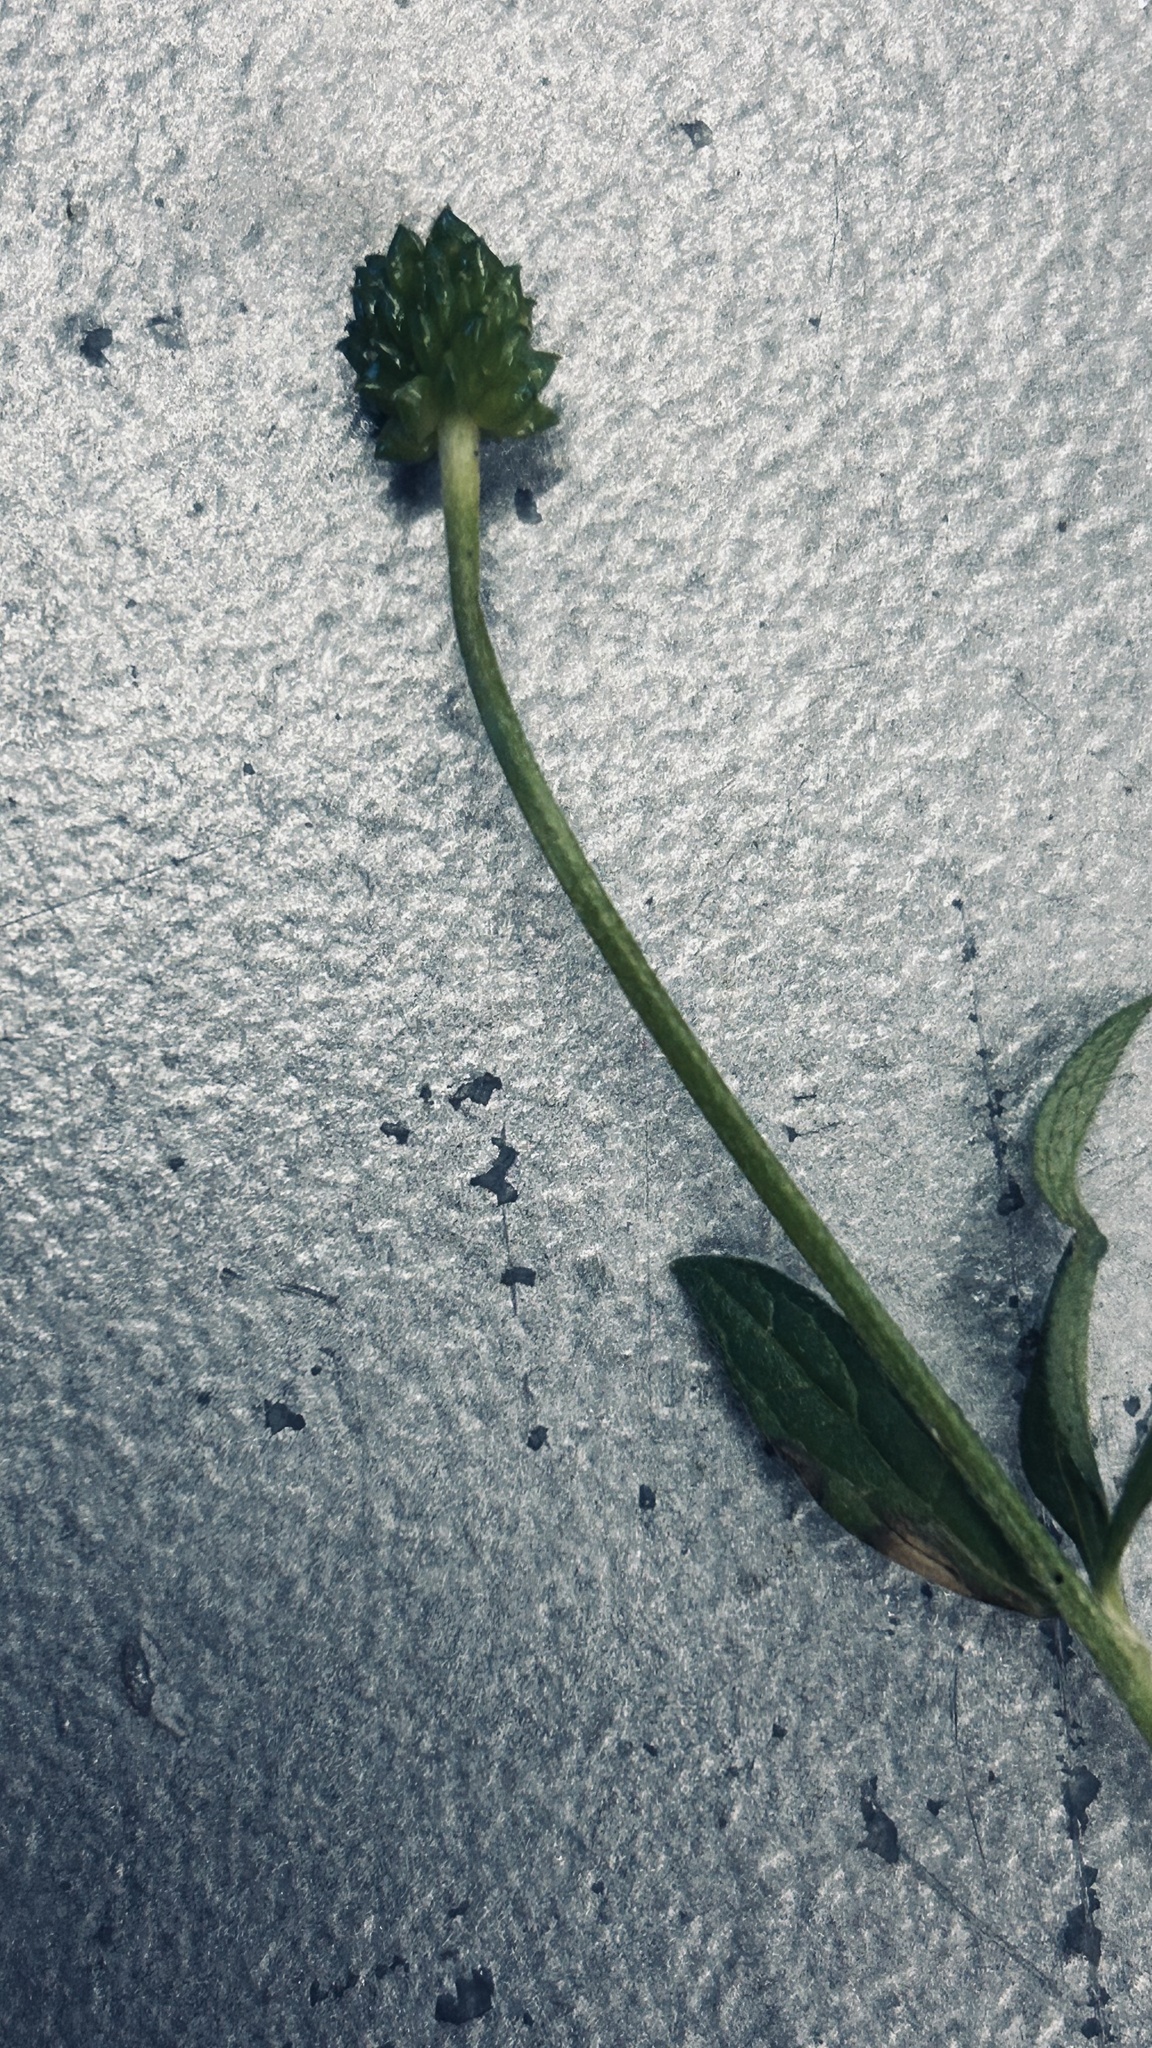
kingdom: Plantae
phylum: Tracheophyta
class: Magnoliopsida
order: Ranunculales
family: Ranunculaceae
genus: Ranunculus
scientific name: Ranunculus multifidus
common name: Wild buttercup
